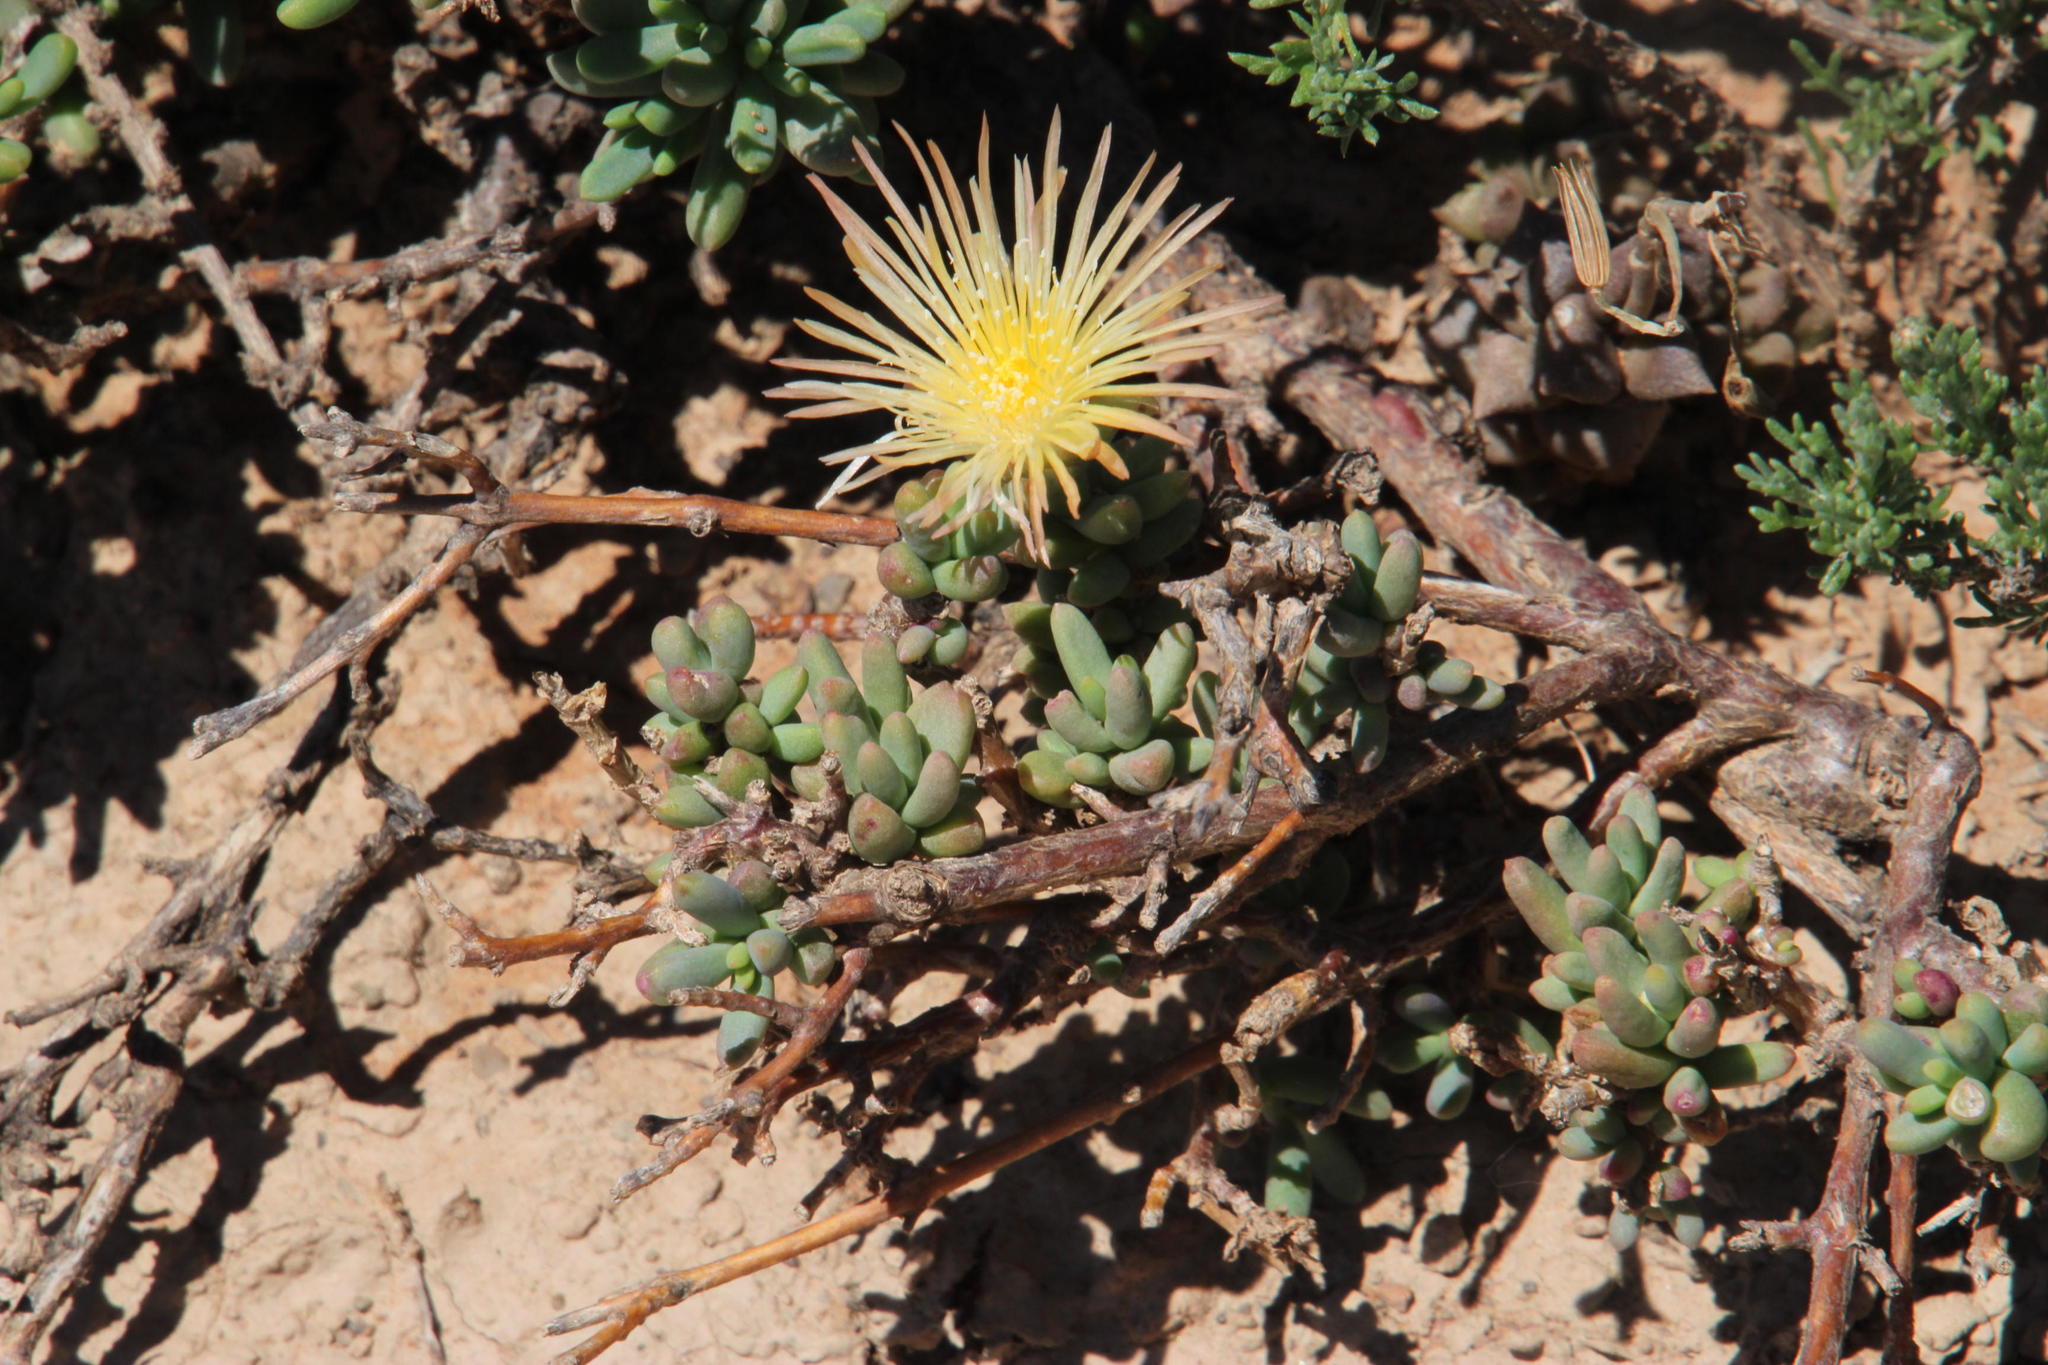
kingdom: Plantae
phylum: Tracheophyta
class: Magnoliopsida
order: Caryophyllales
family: Aizoaceae
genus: Mesembryanthemum
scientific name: Mesembryanthemum nitidum
